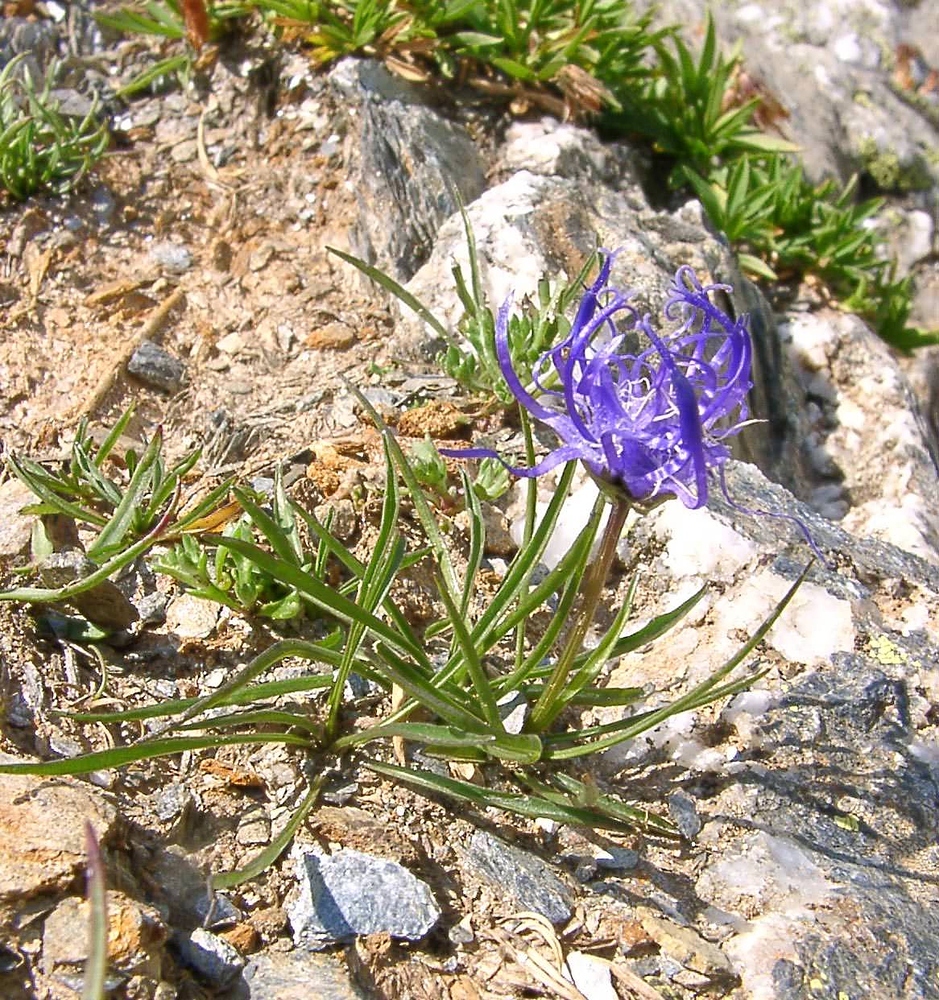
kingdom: Plantae
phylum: Tracheophyta
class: Magnoliopsida
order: Asterales
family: Campanulaceae
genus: Phyteuma
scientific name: Phyteuma hemisphaericum
